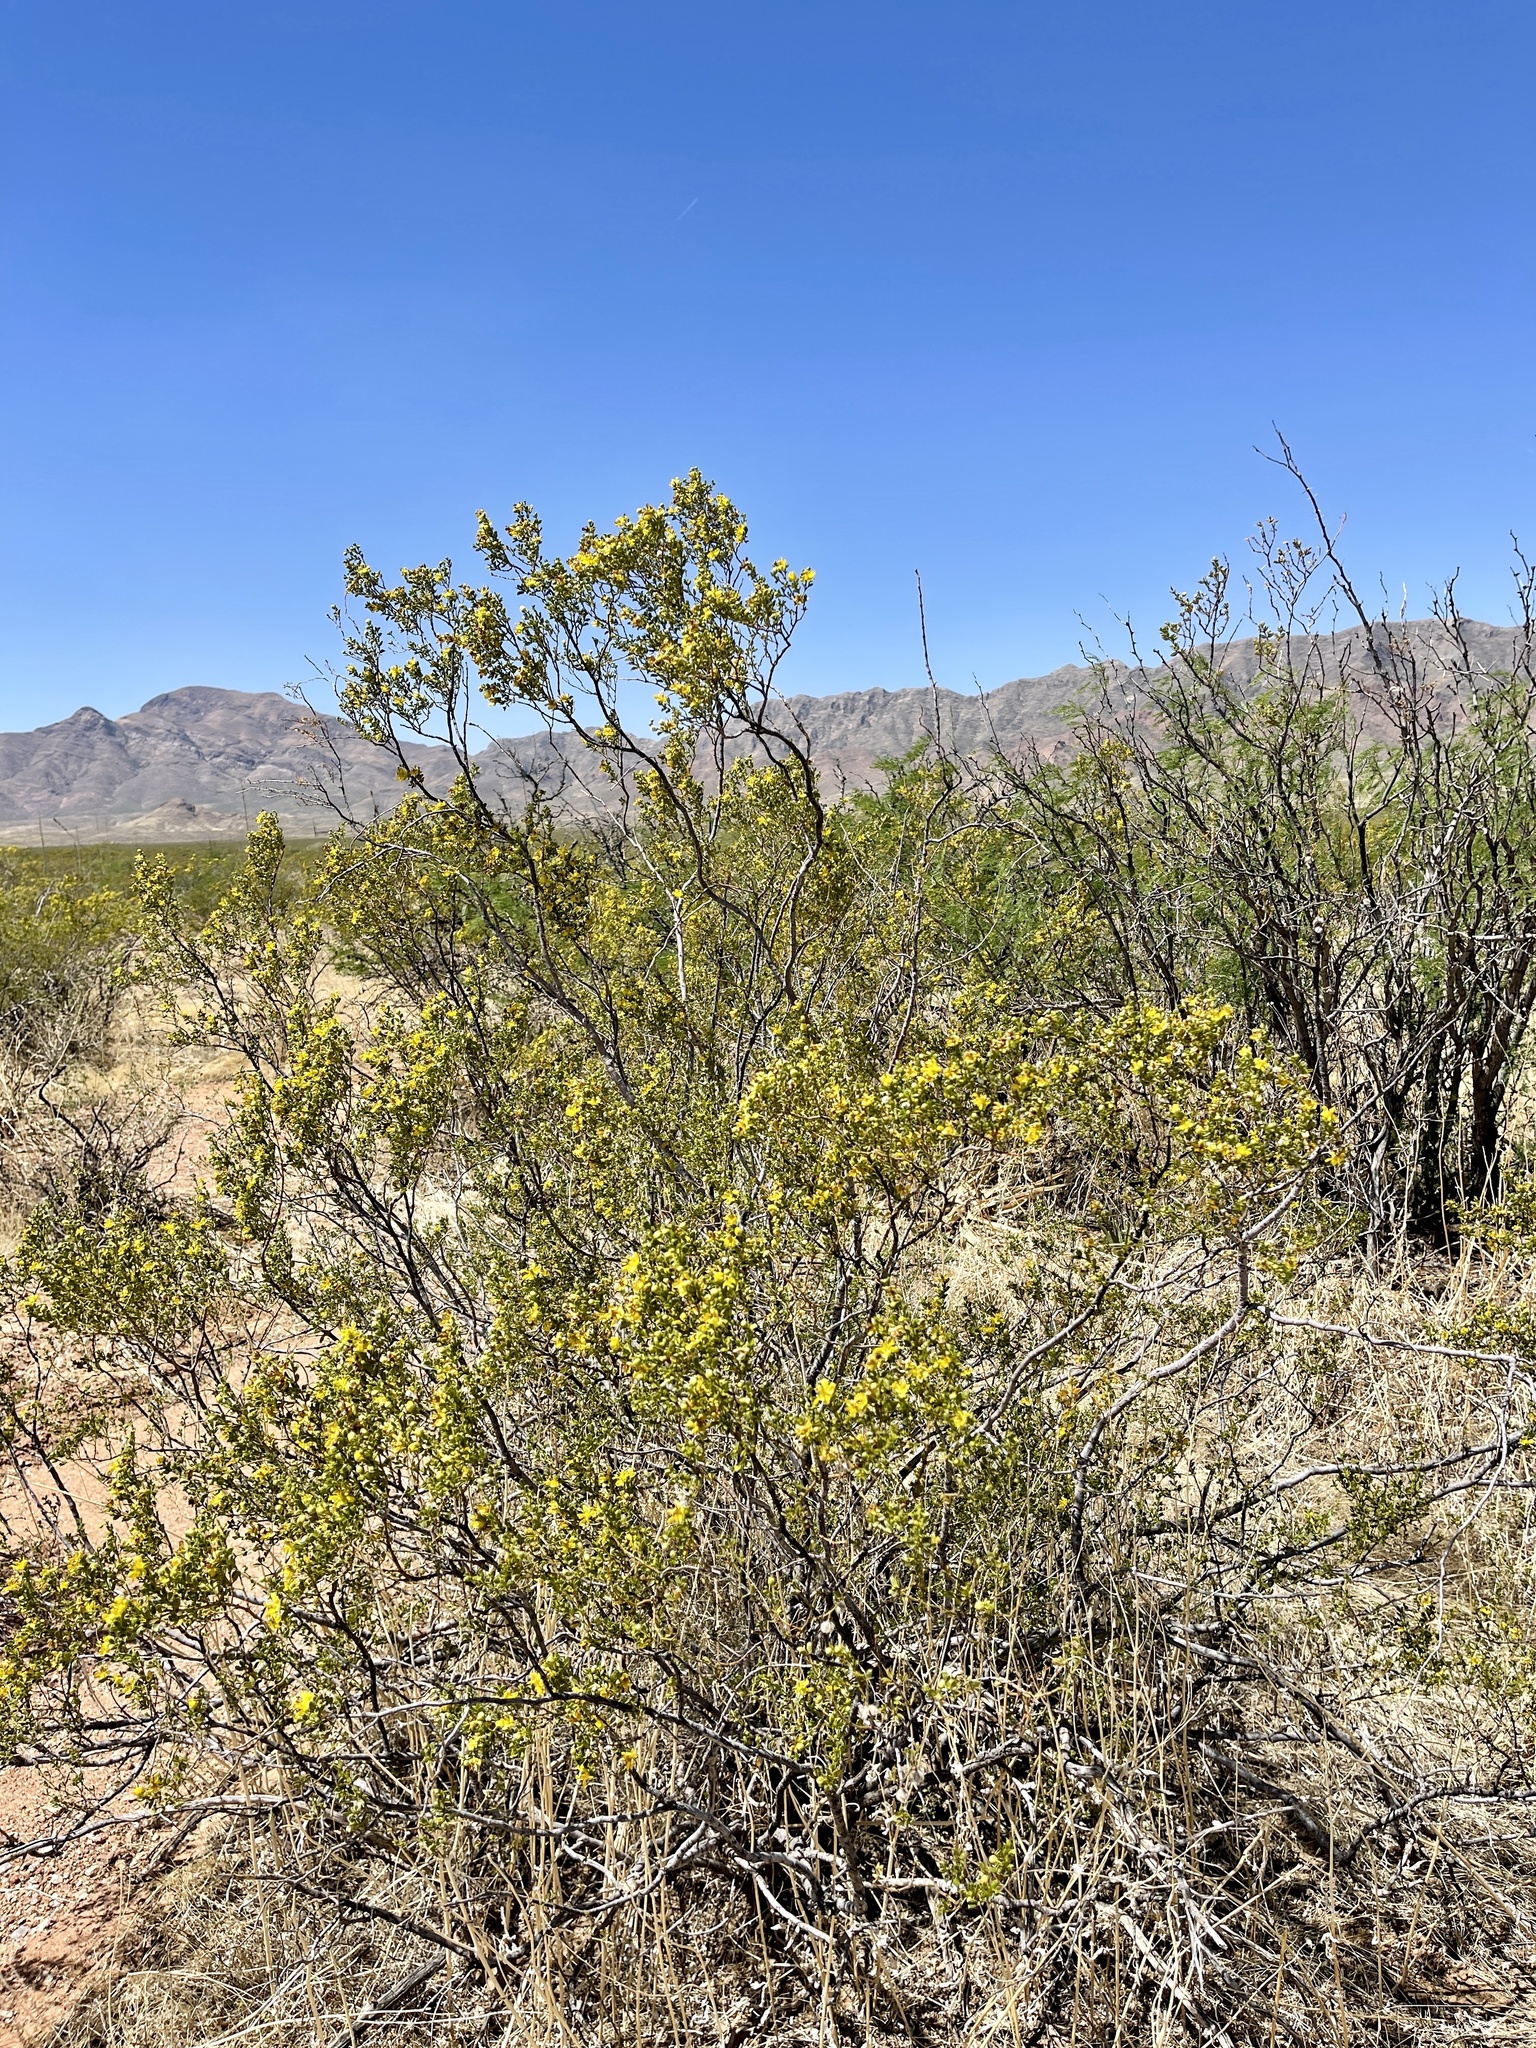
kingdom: Plantae
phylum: Tracheophyta
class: Magnoliopsida
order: Zygophyllales
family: Zygophyllaceae
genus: Larrea
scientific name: Larrea tridentata
